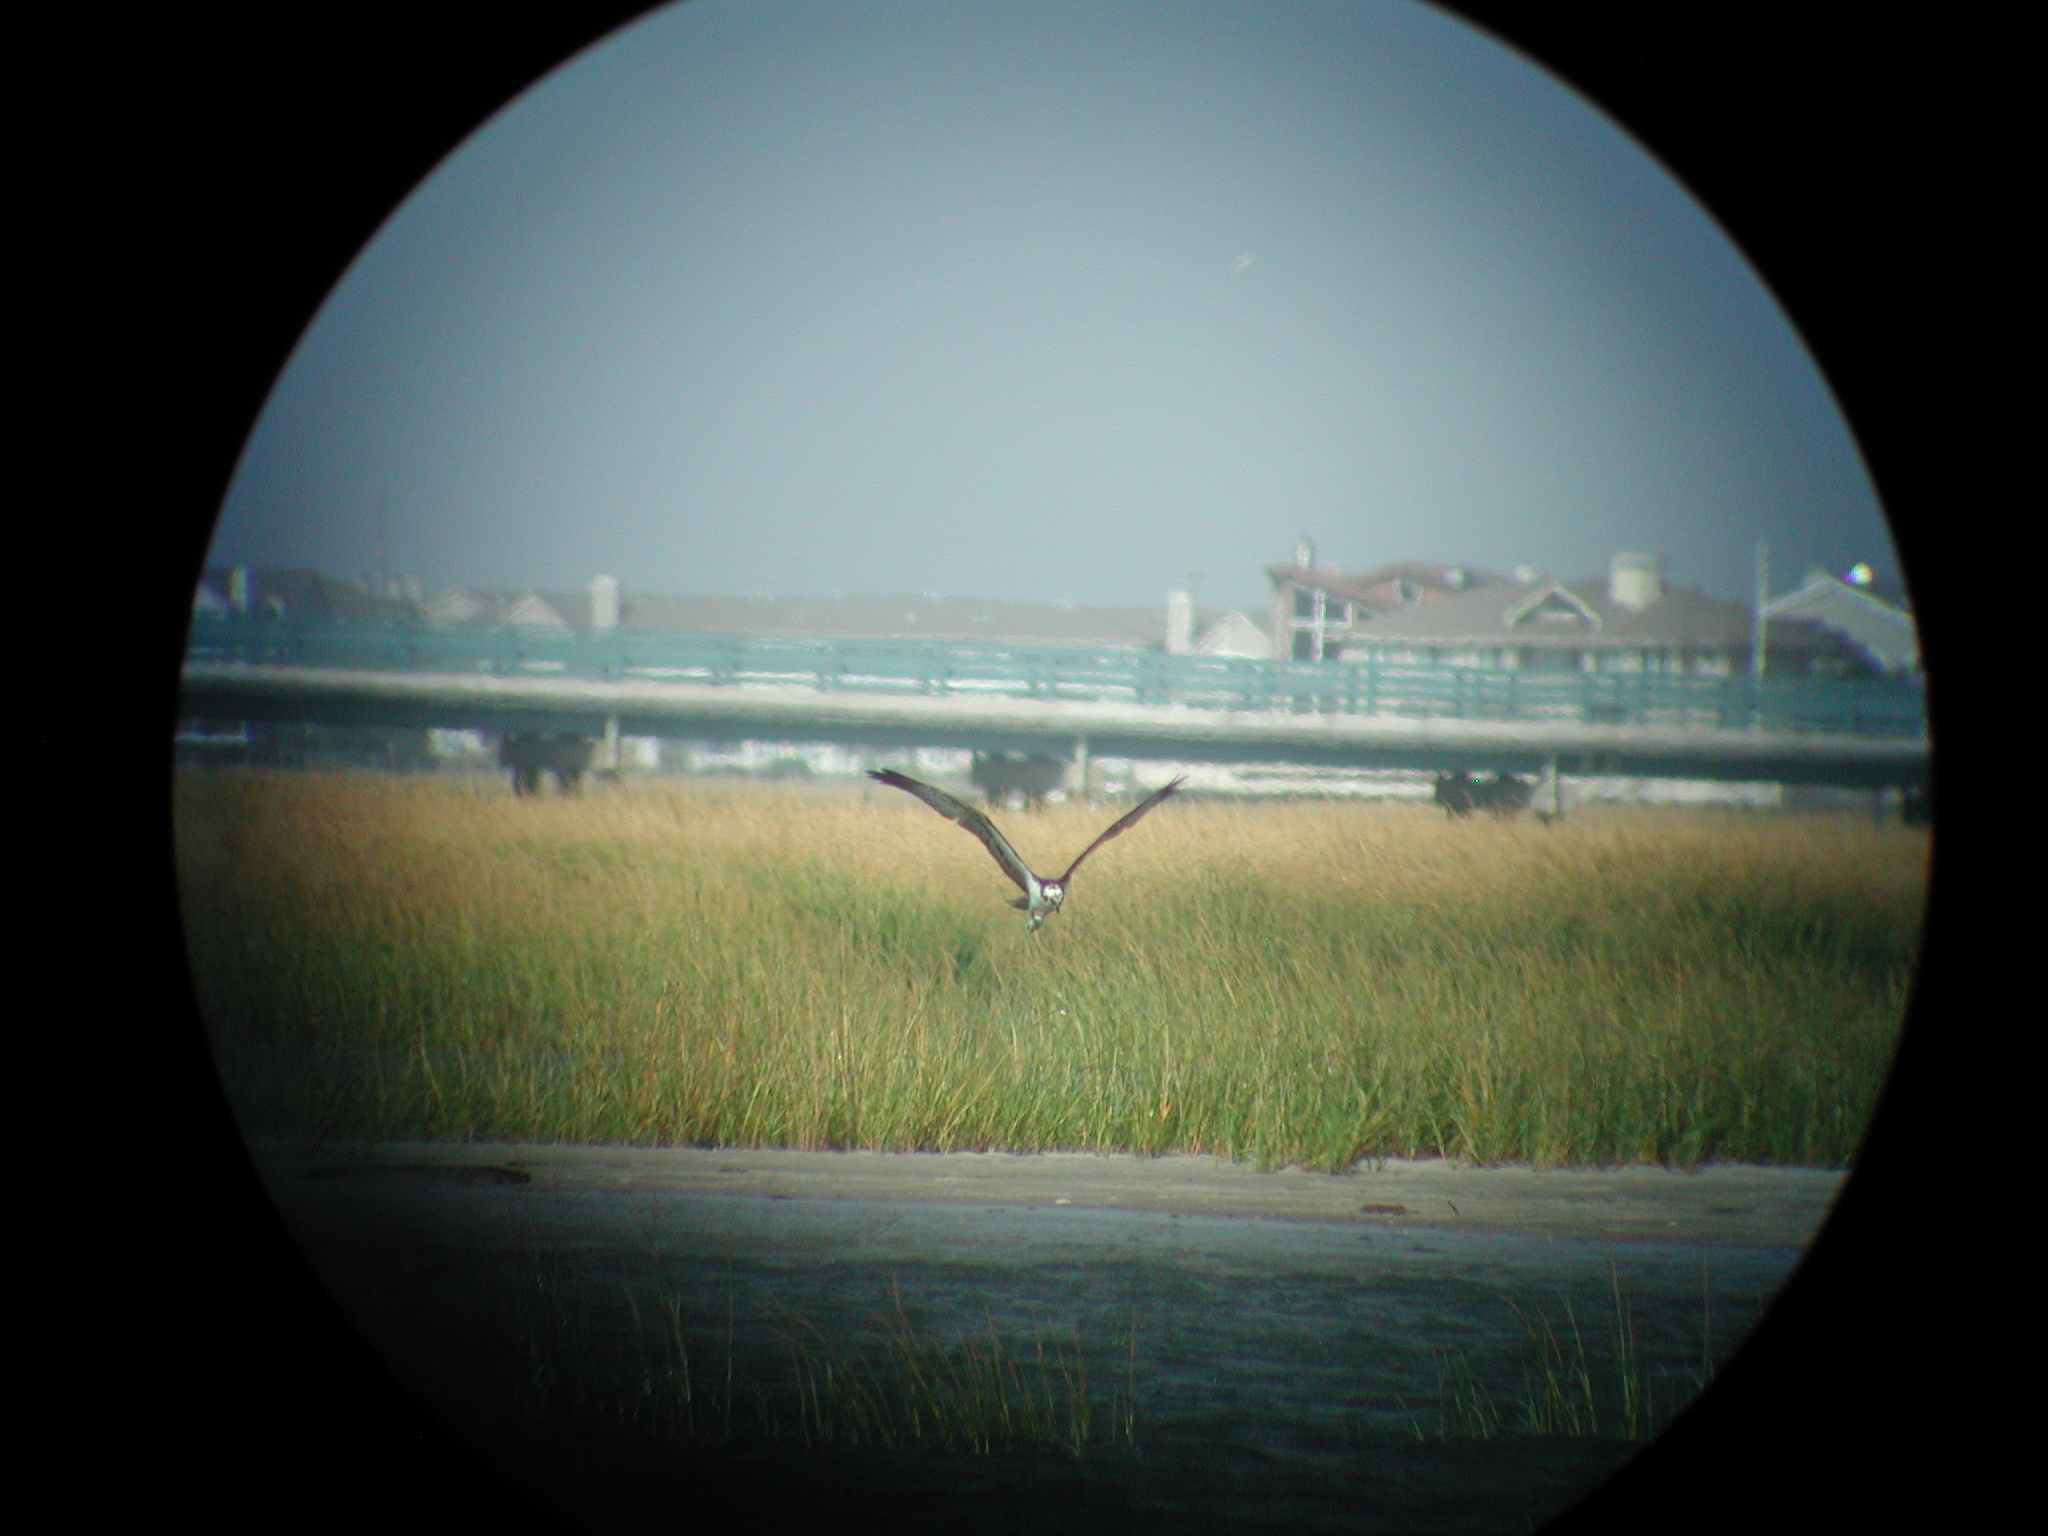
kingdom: Animalia
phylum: Chordata
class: Aves
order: Accipitriformes
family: Pandionidae
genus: Pandion
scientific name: Pandion haliaetus
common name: Osprey
